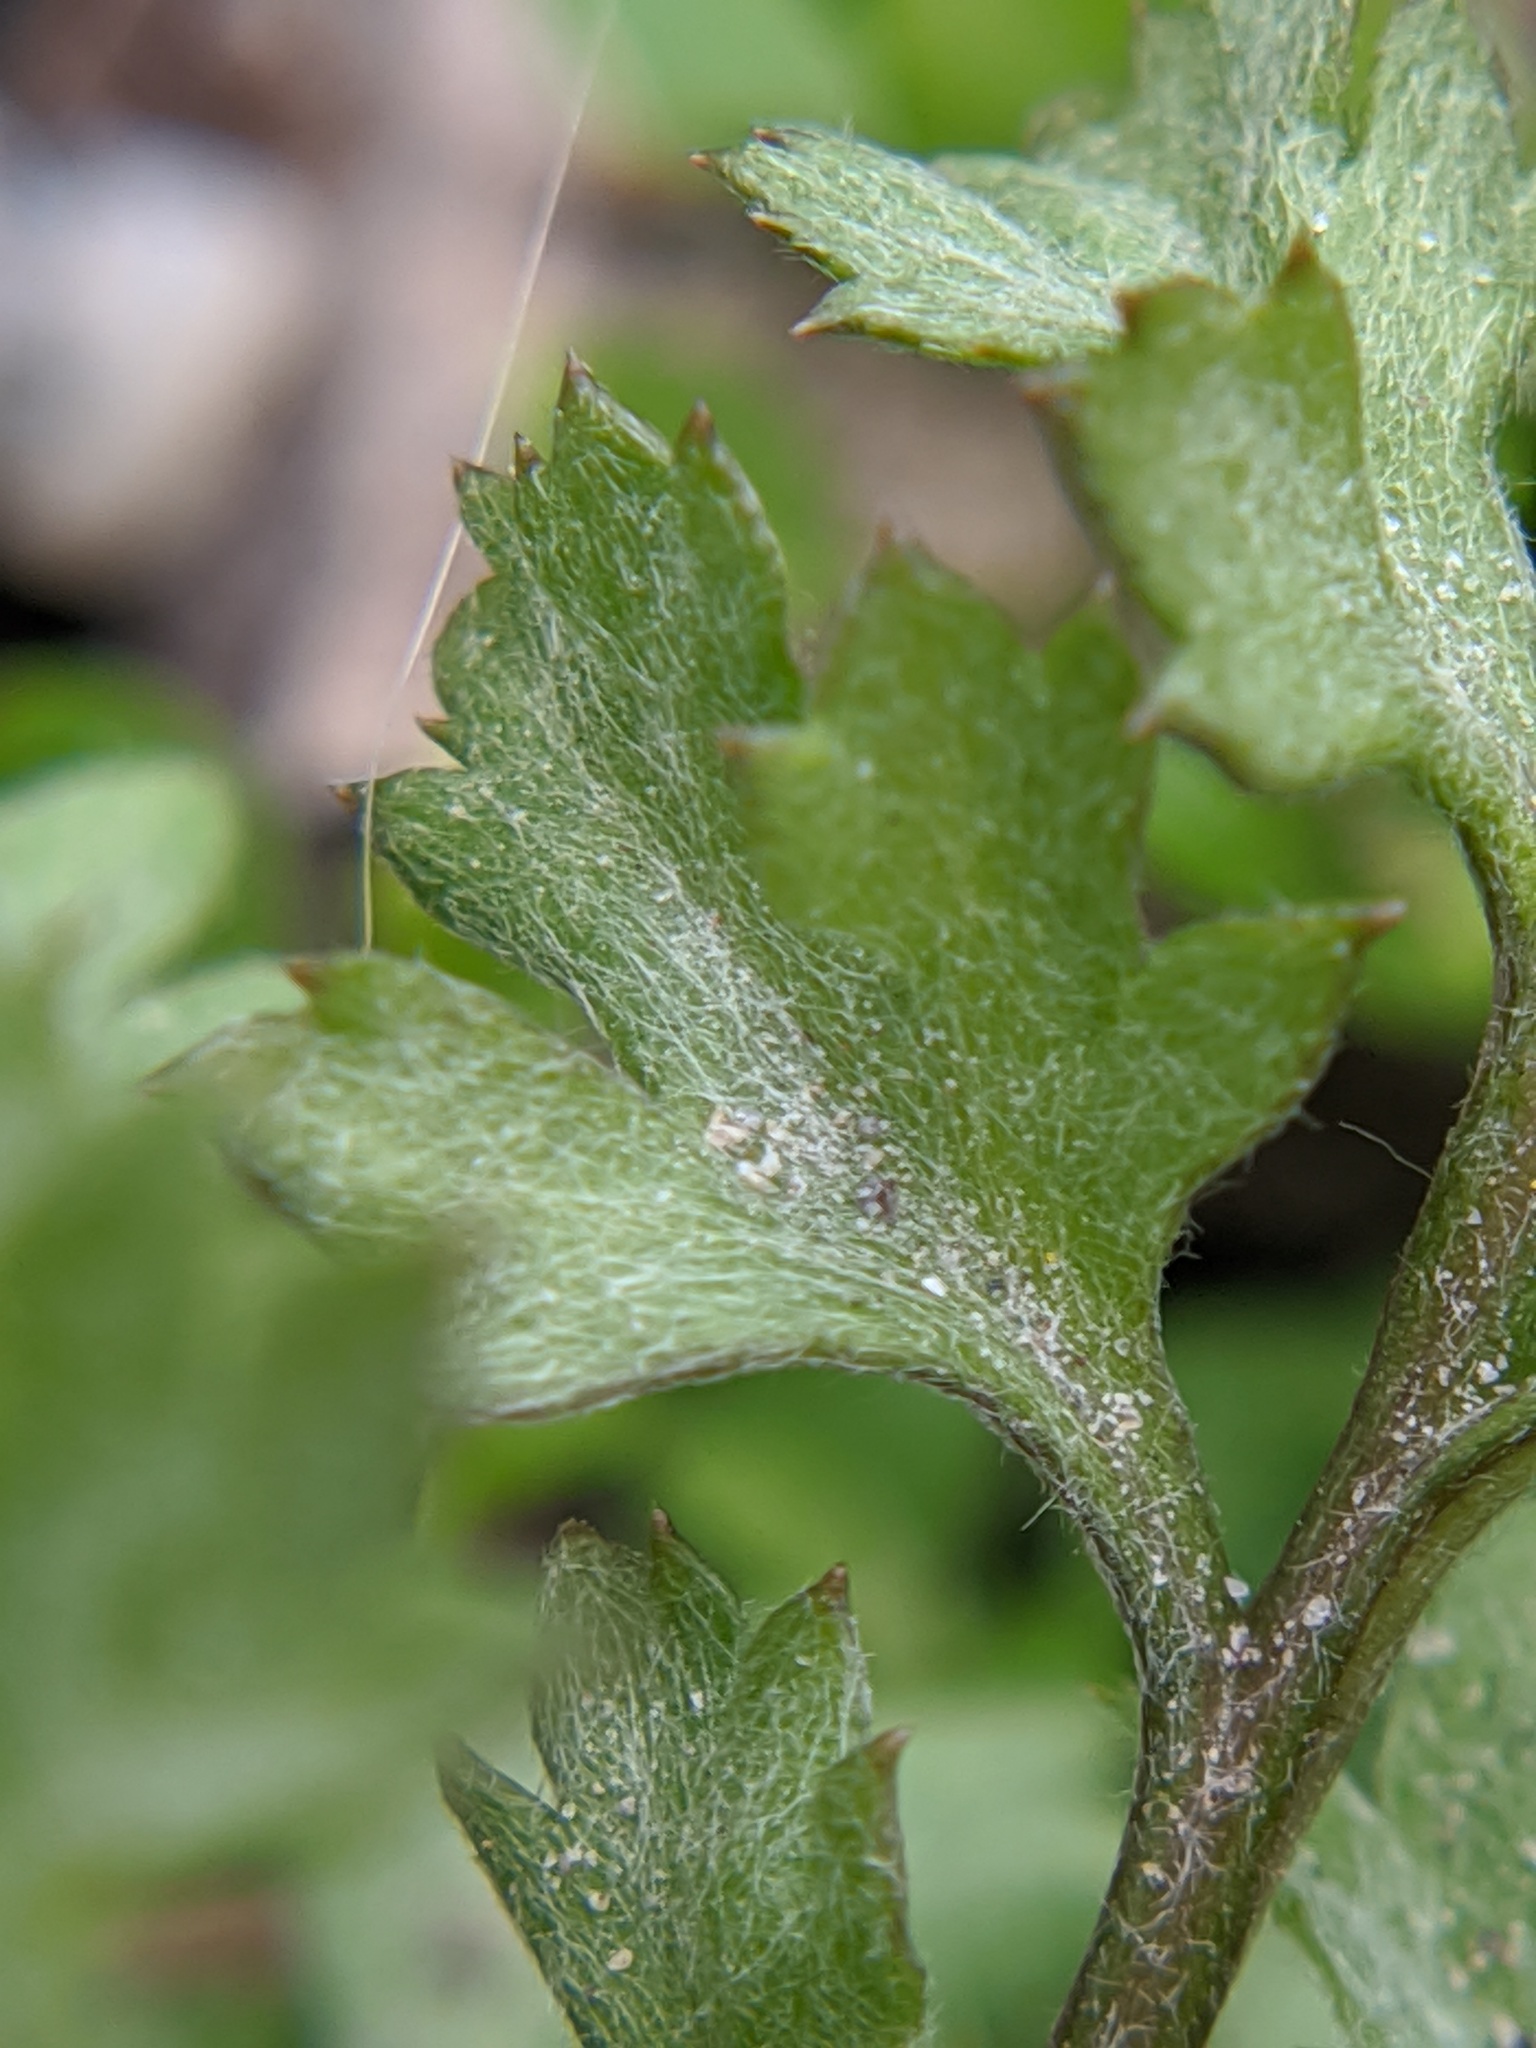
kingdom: Plantae
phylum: Tracheophyta
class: Magnoliopsida
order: Asterales
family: Asteraceae
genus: Artemisia
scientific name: Artemisia vulgaris
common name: Mugwort
